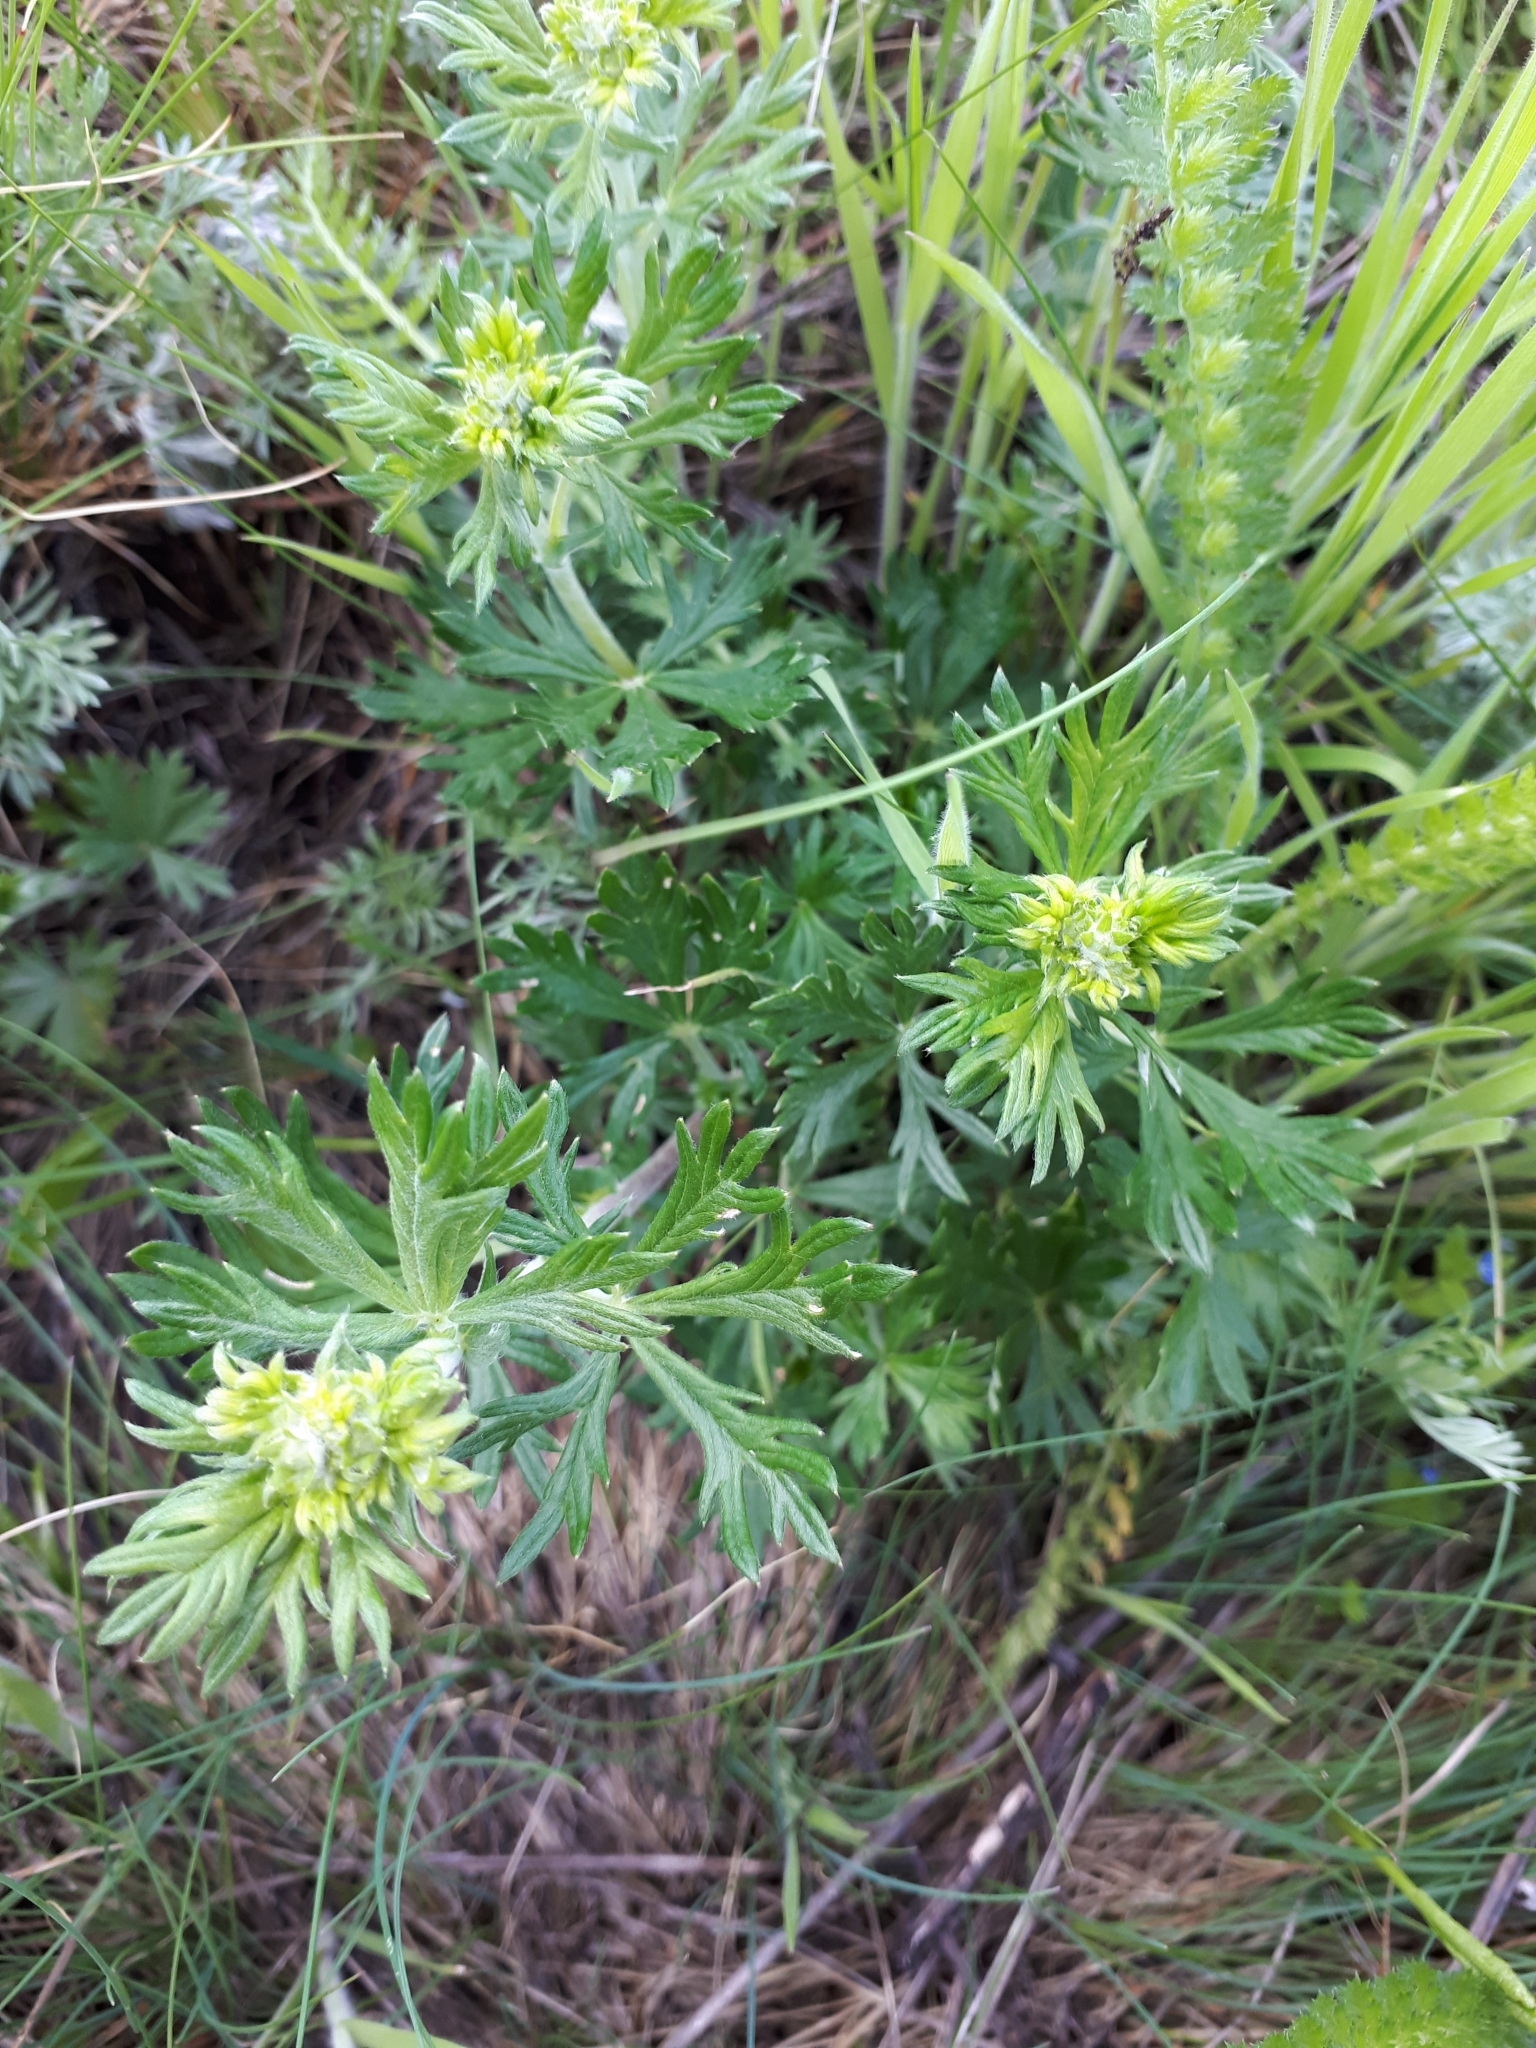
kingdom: Plantae
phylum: Tracheophyta
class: Magnoliopsida
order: Rosales
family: Rosaceae
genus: Potentilla
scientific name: Potentilla argentea
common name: Hoary cinquefoil
